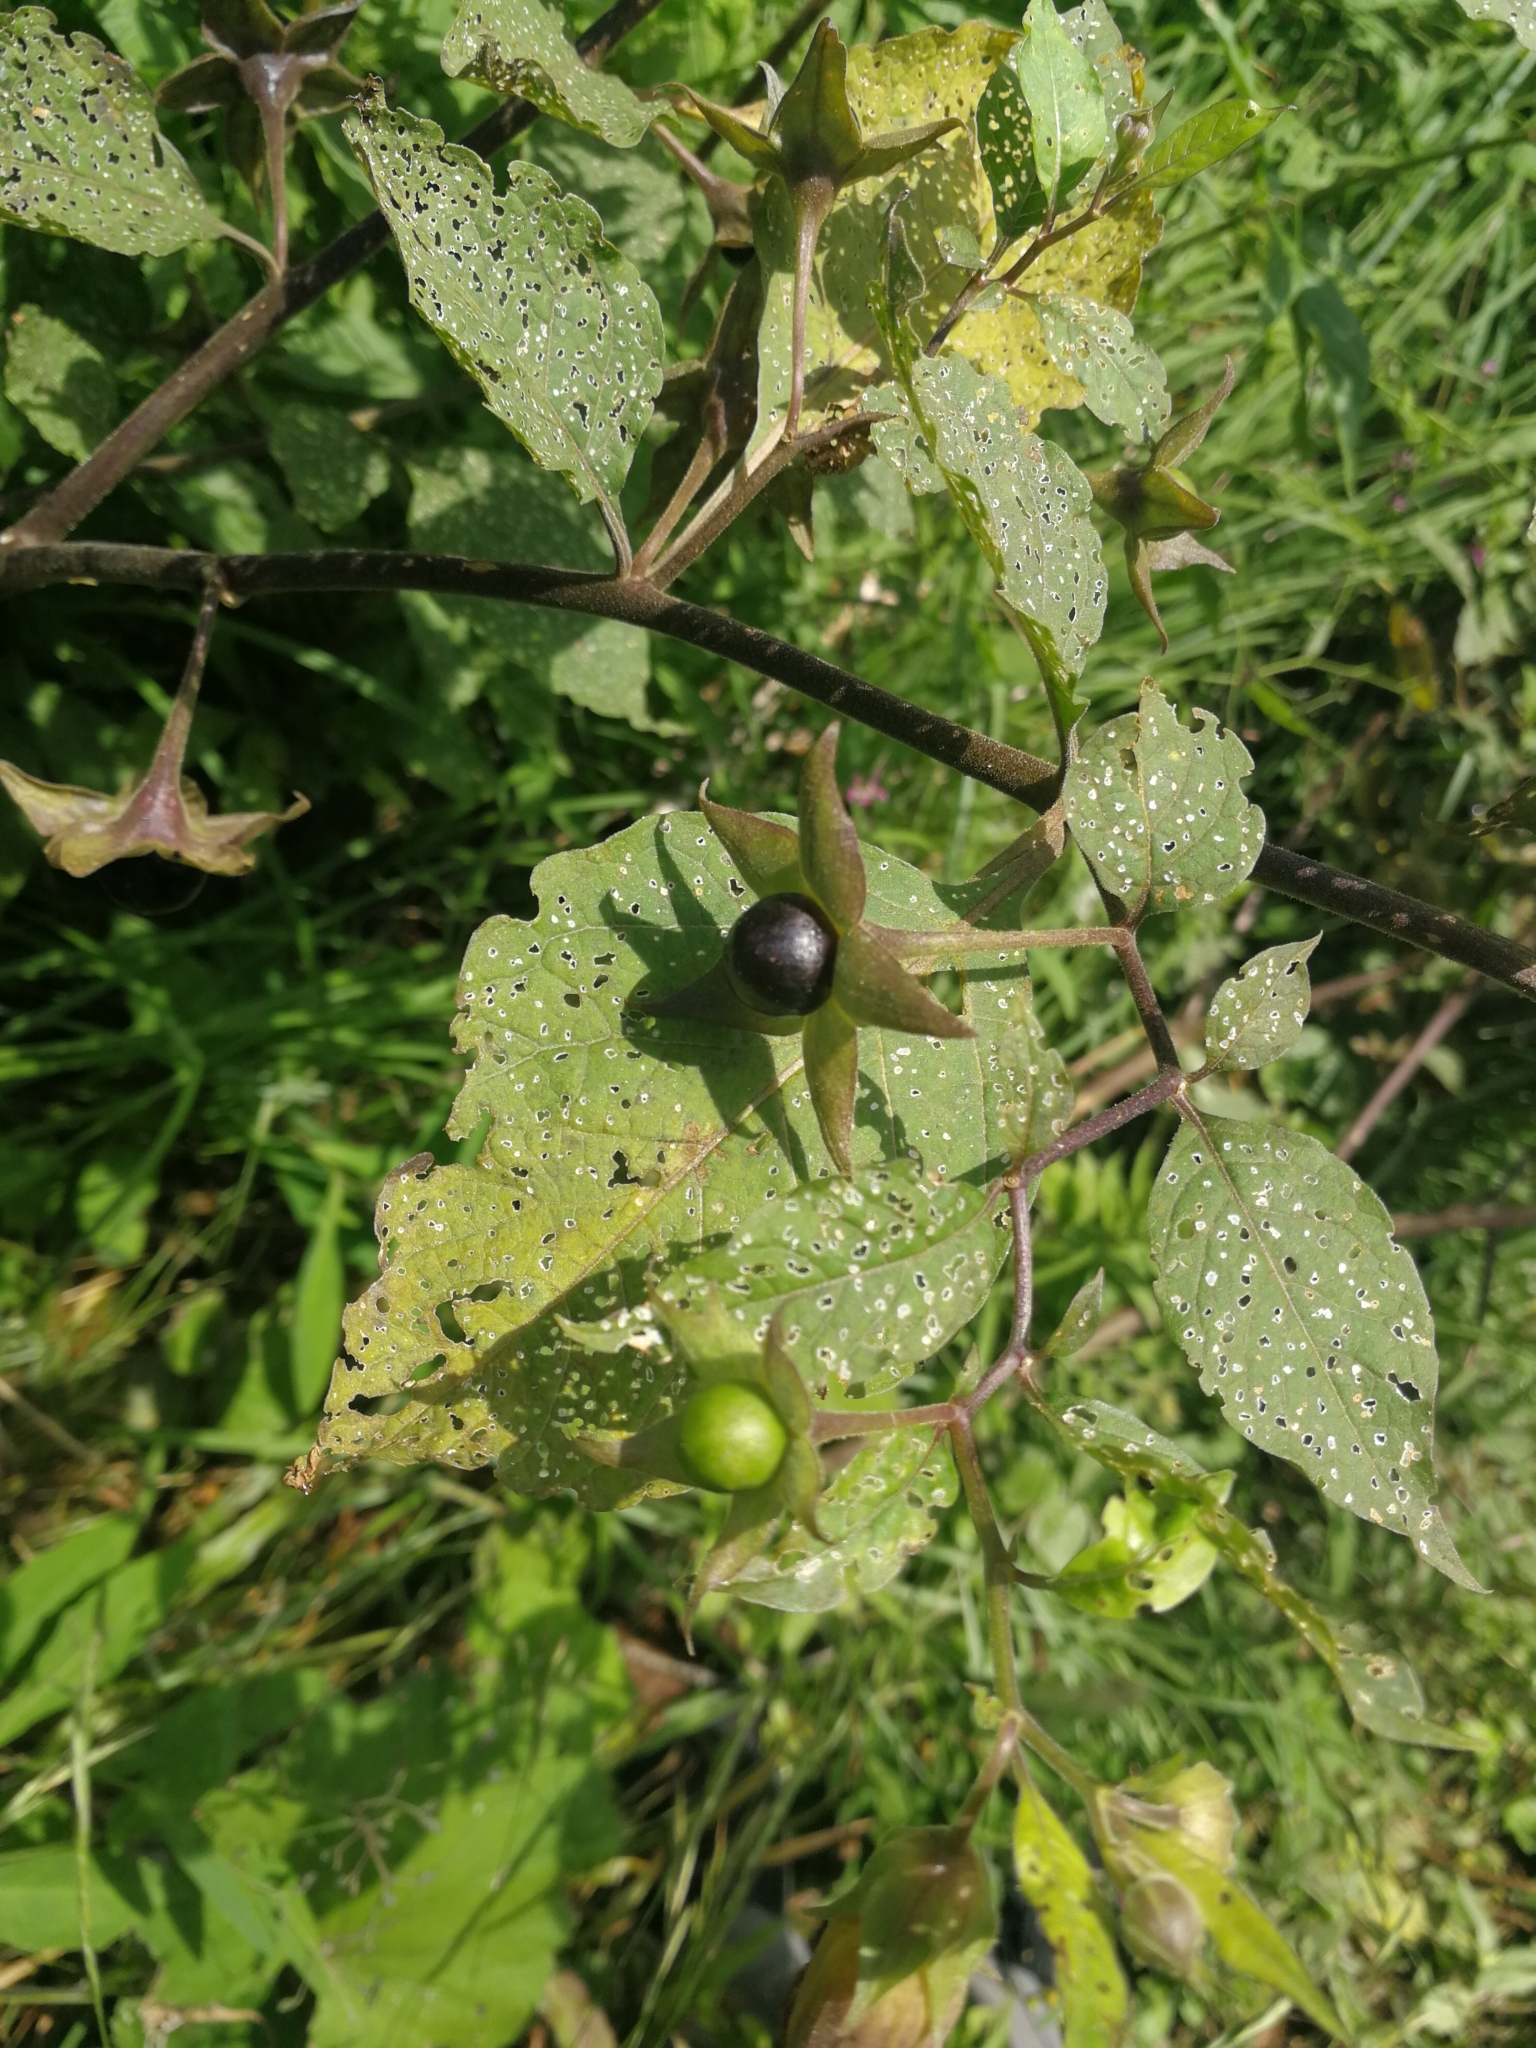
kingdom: Plantae
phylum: Tracheophyta
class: Magnoliopsida
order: Solanales
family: Solanaceae
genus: Atropa
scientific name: Atropa belladonna
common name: Deadly nightshade
